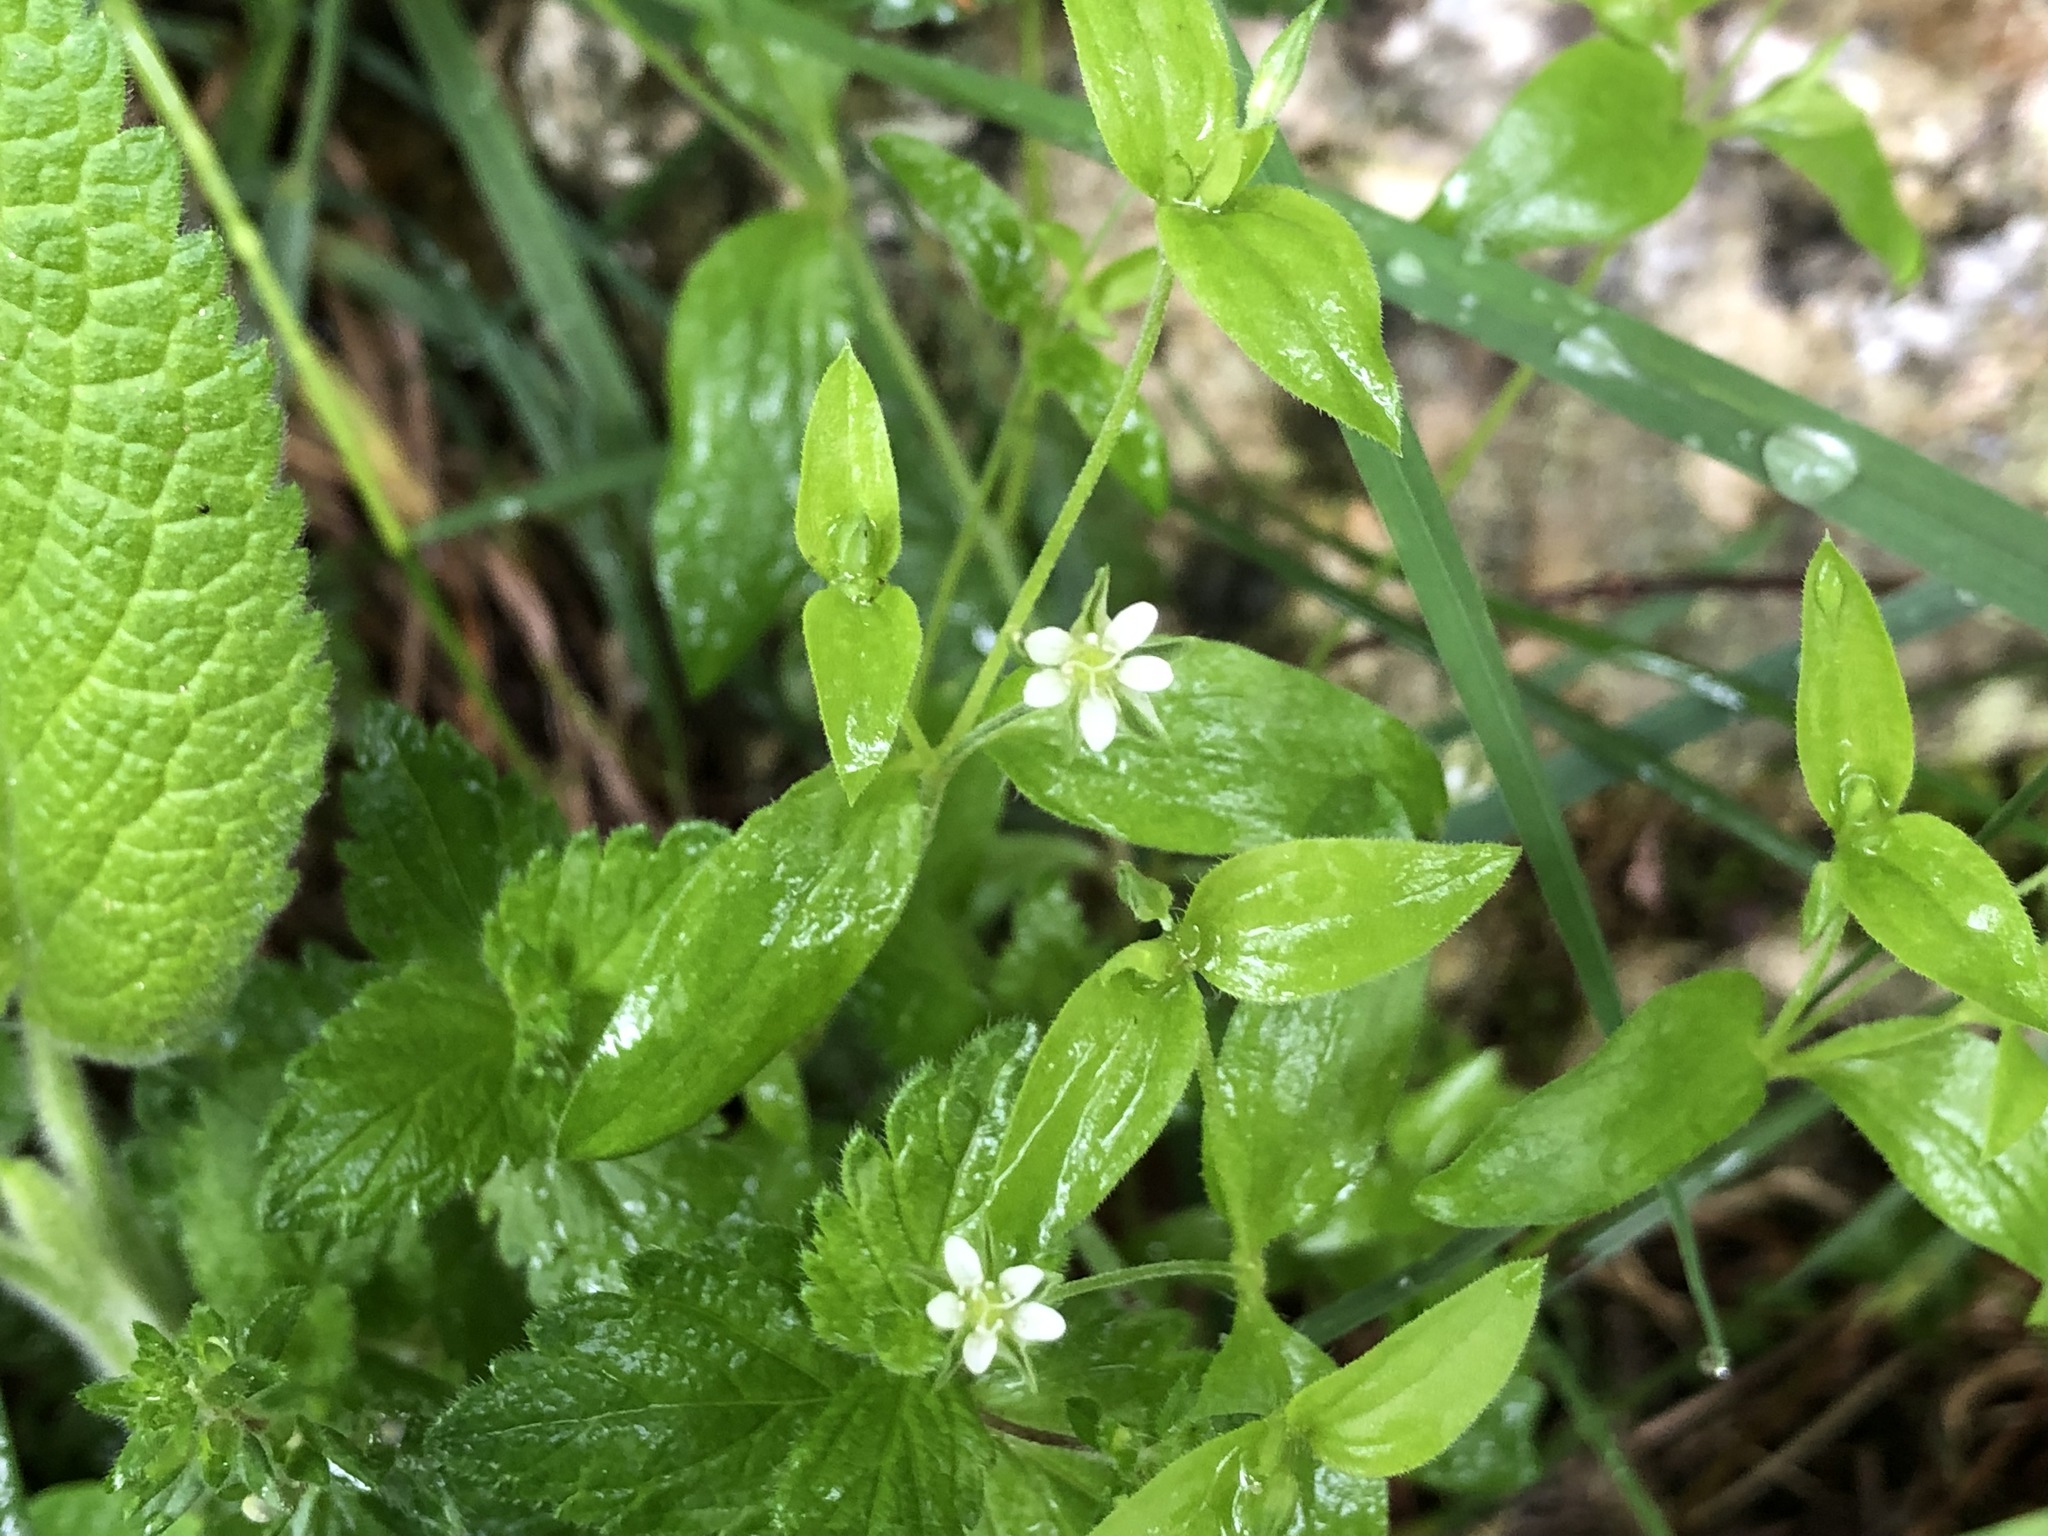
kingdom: Plantae
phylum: Tracheophyta
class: Magnoliopsida
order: Caryophyllales
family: Caryophyllaceae
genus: Moehringia
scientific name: Moehringia trinervia
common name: Three-nerved sandwort
